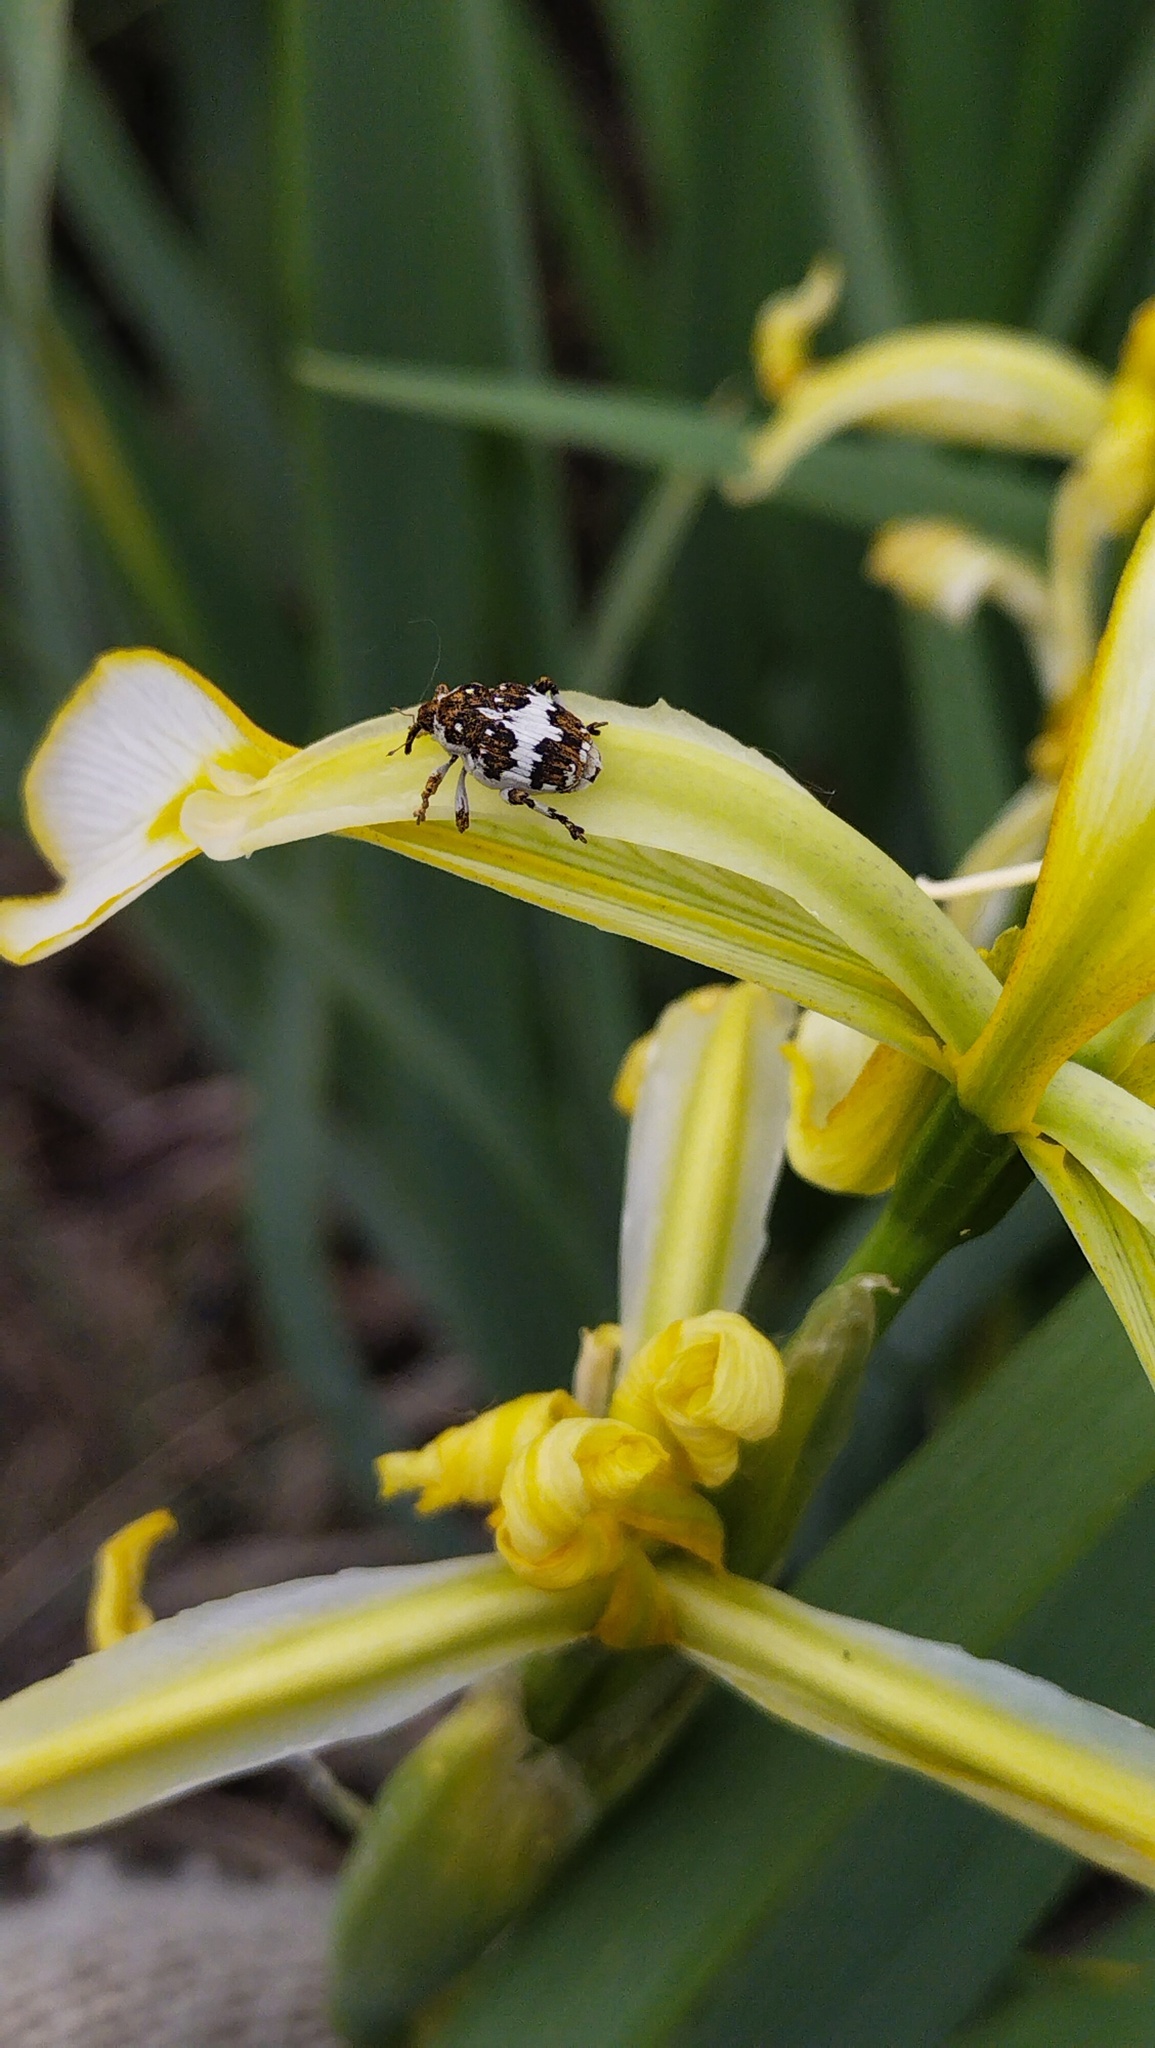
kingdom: Animalia
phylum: Arthropoda
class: Insecta
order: Coleoptera
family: Curculionidae
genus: Mononychus
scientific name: Mononychus ireos
